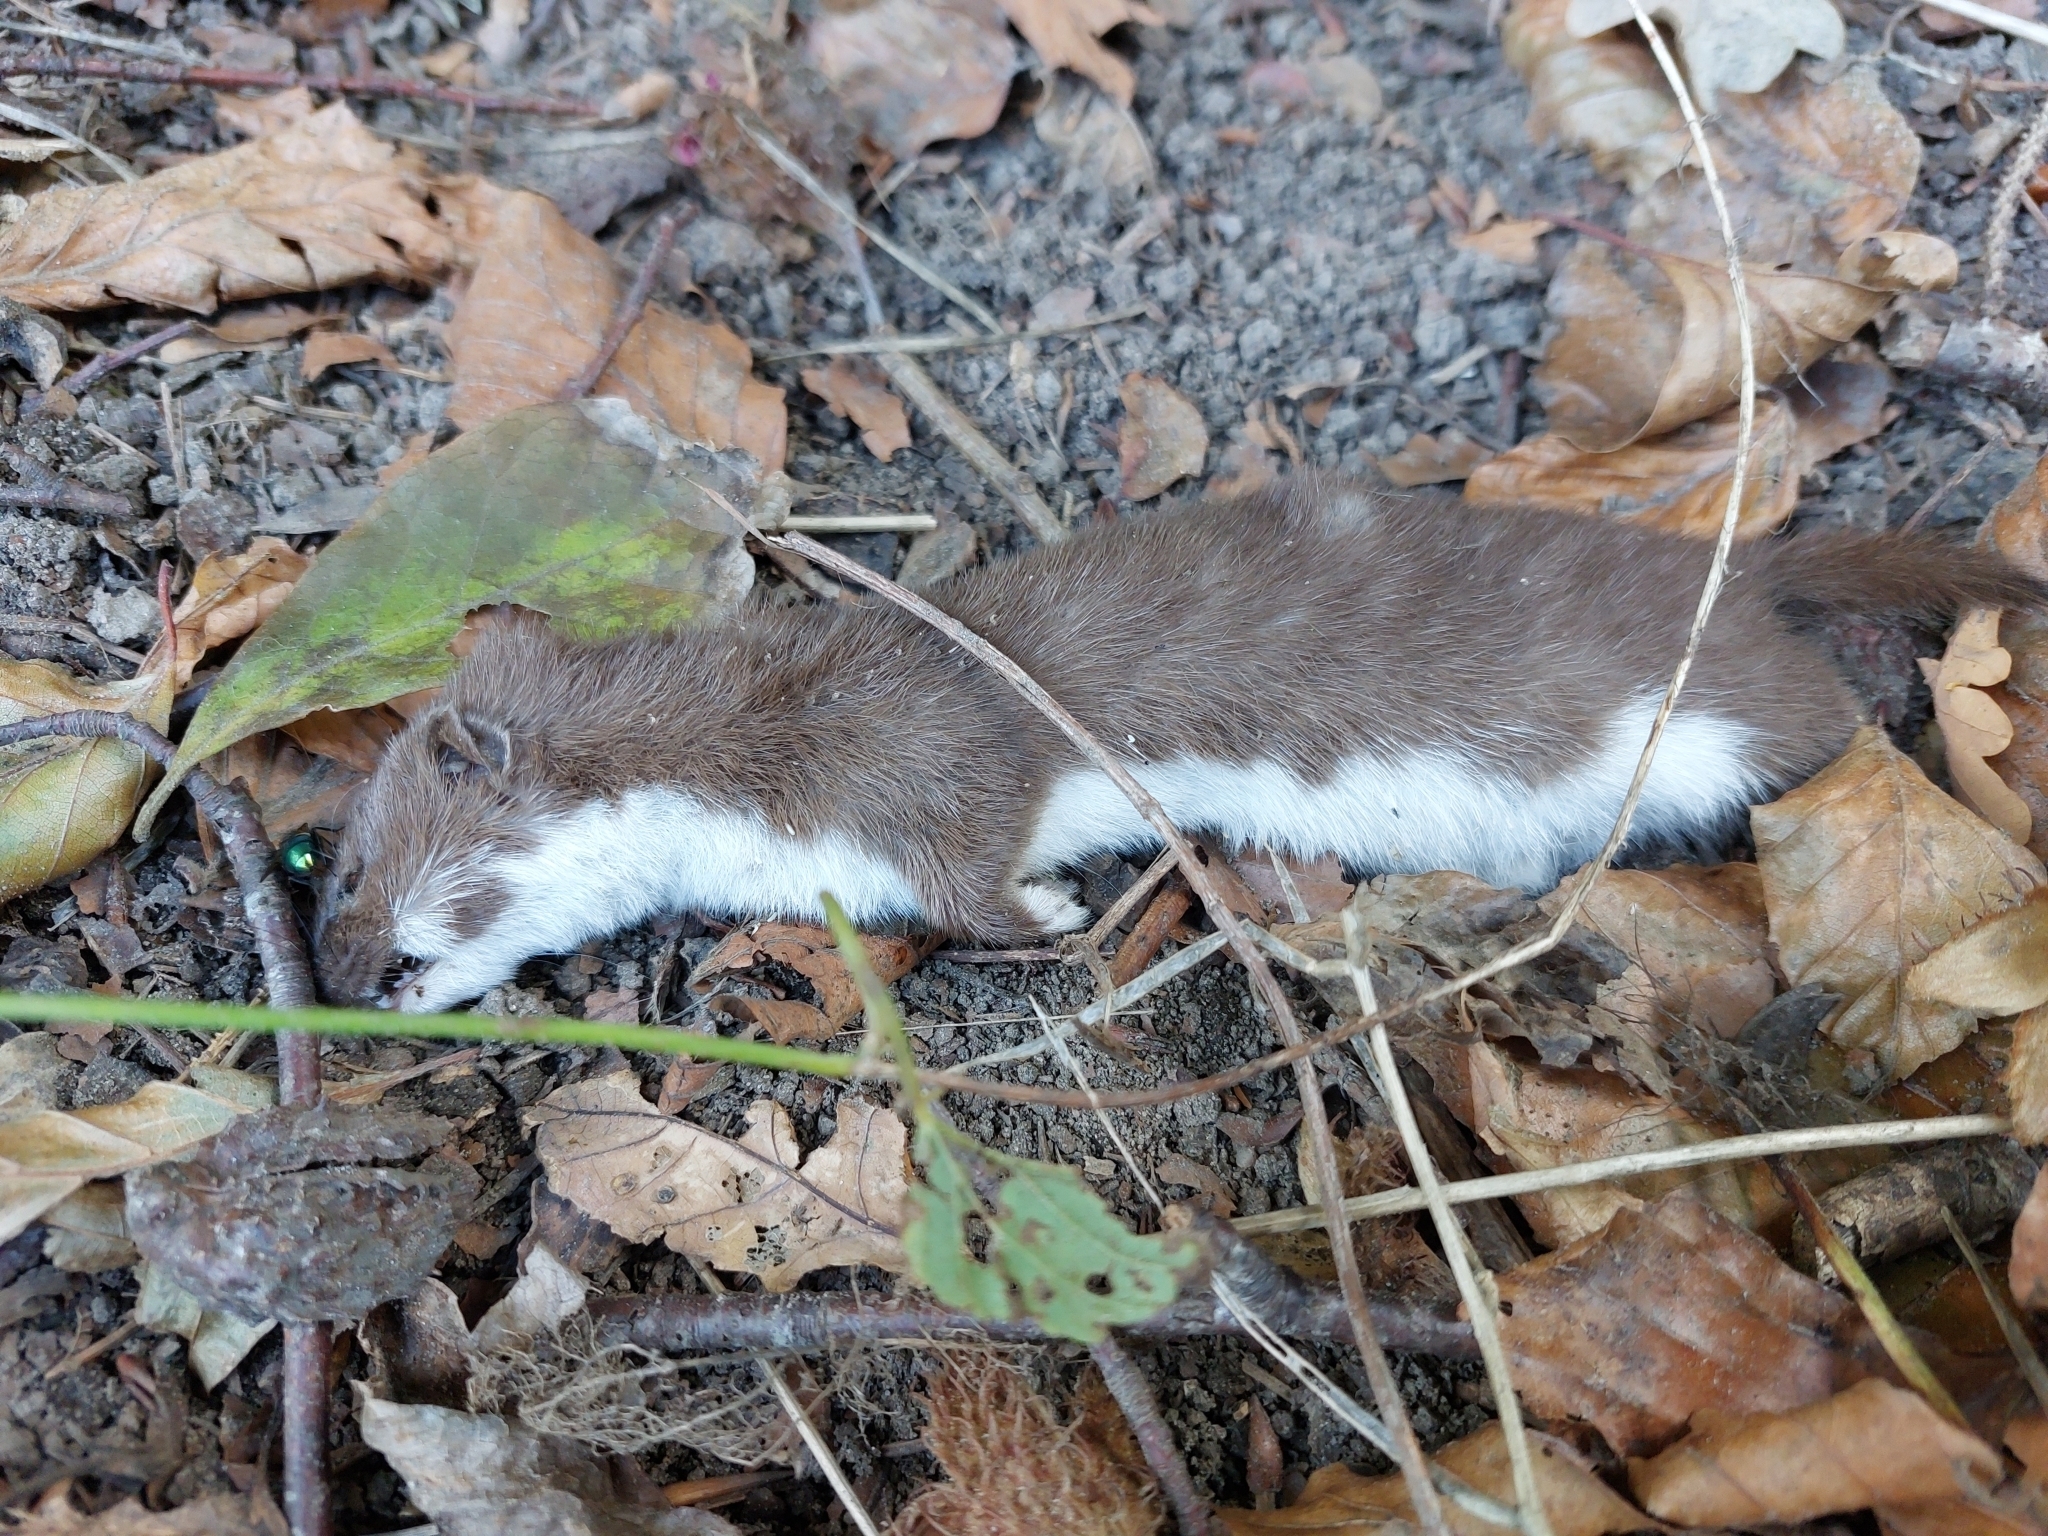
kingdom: Animalia
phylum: Chordata
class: Mammalia
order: Carnivora
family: Mustelidae
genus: Mustela
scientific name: Mustela nivalis
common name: Least weasel
